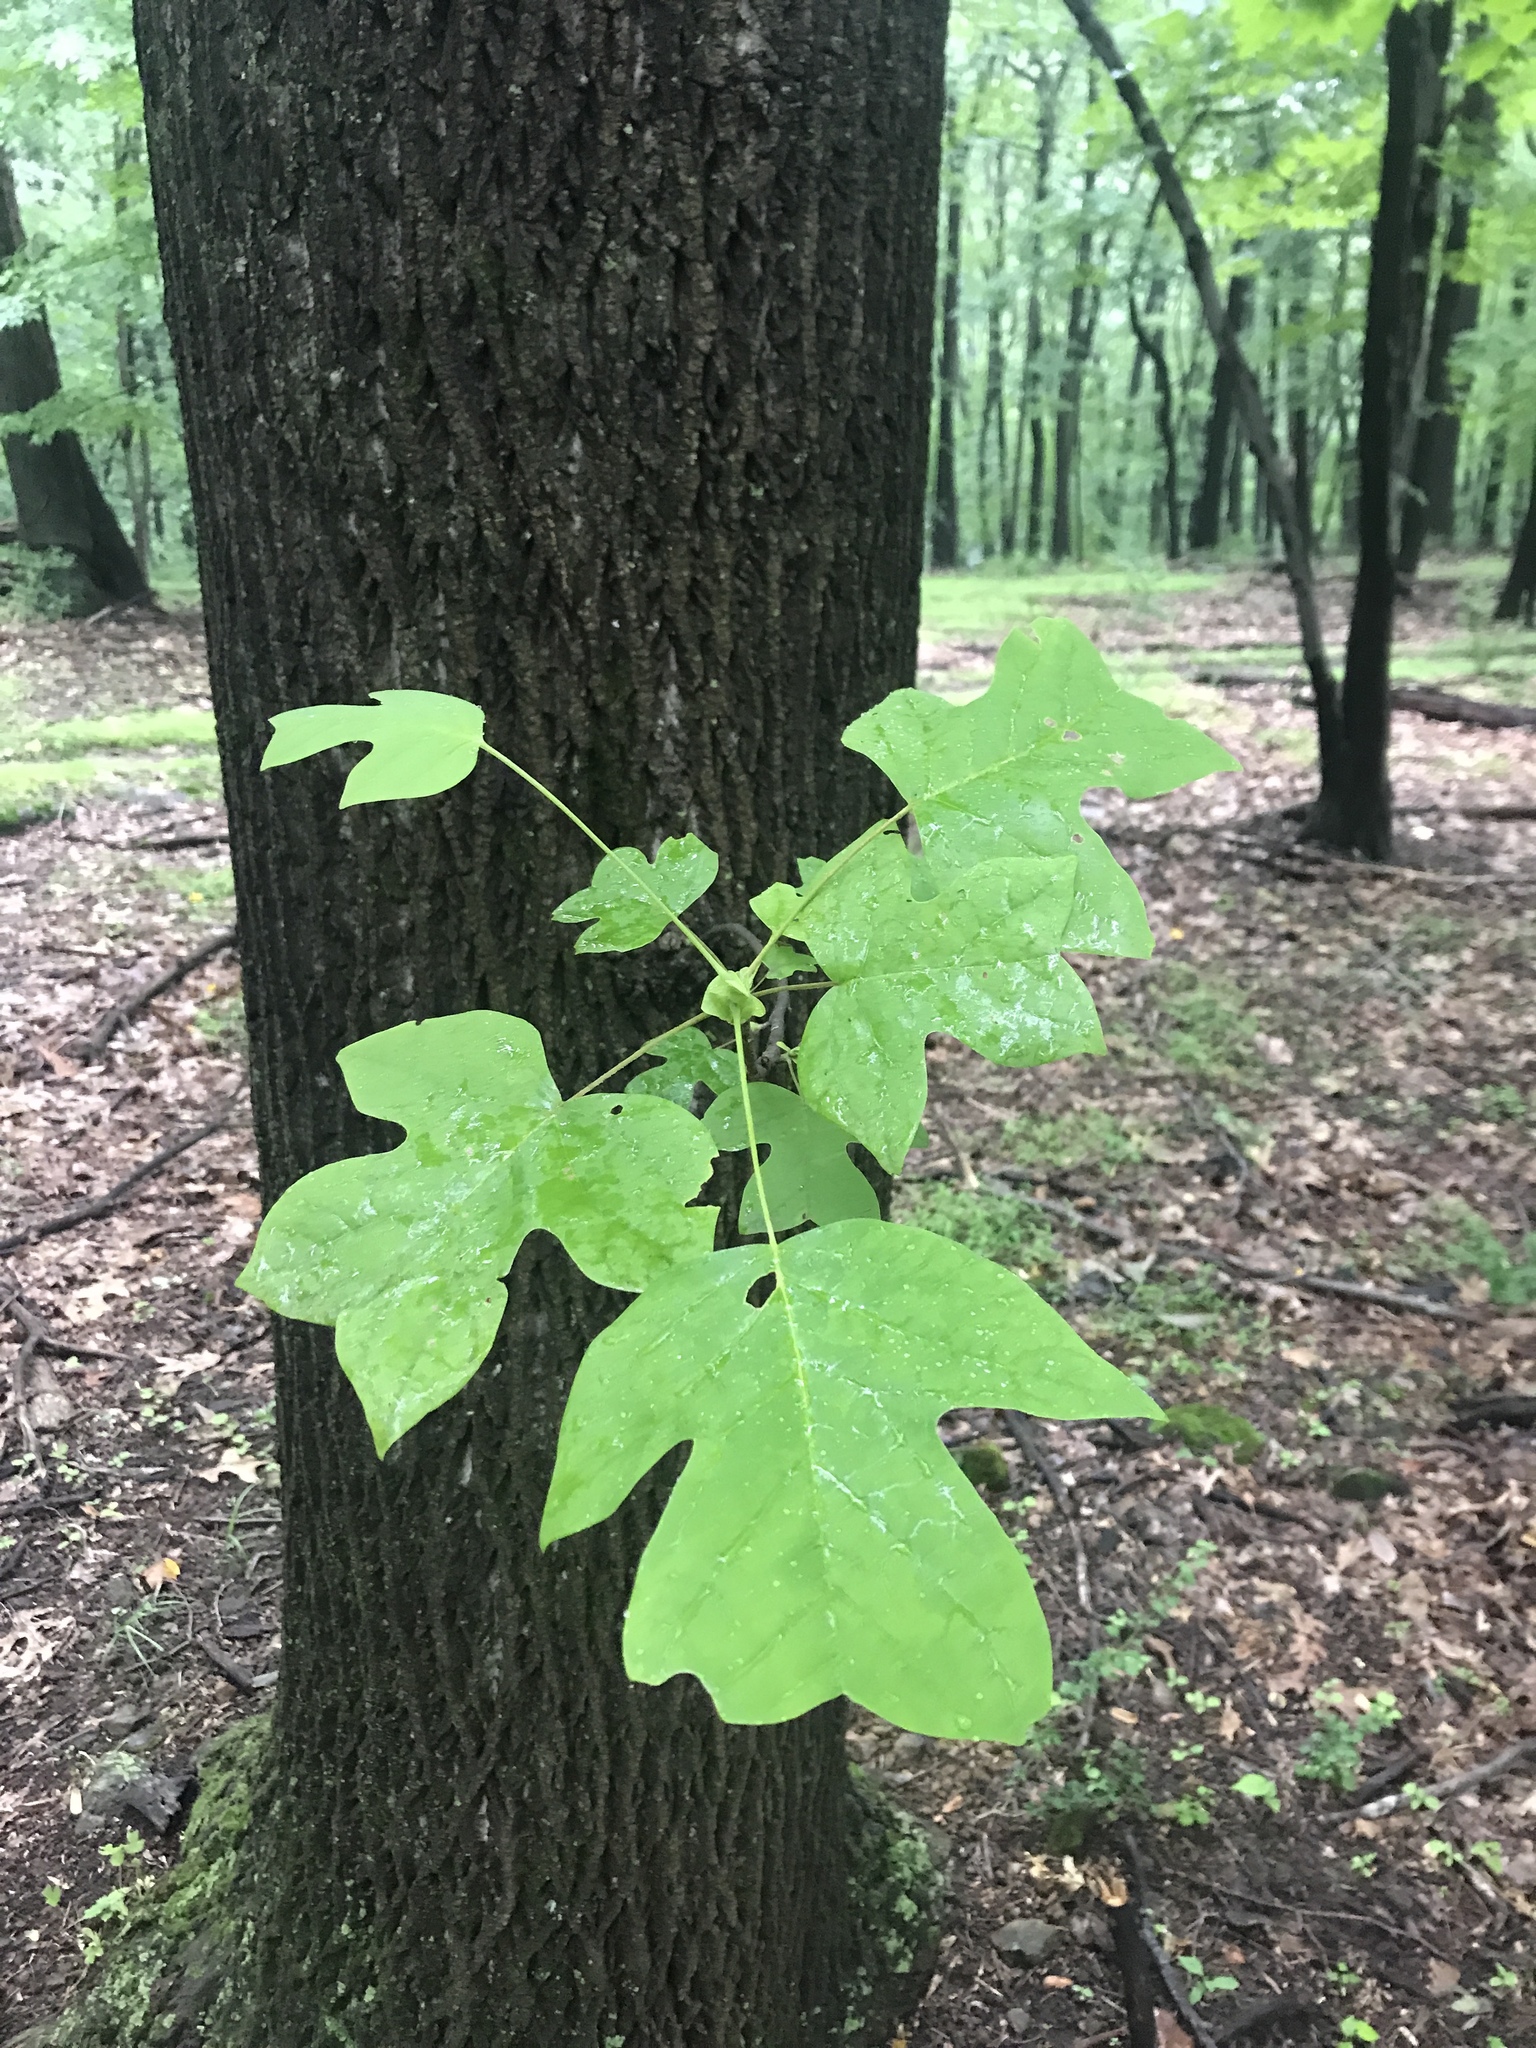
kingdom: Plantae
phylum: Tracheophyta
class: Magnoliopsida
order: Magnoliales
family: Magnoliaceae
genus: Liriodendron
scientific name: Liriodendron tulipifera
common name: Tulip tree
